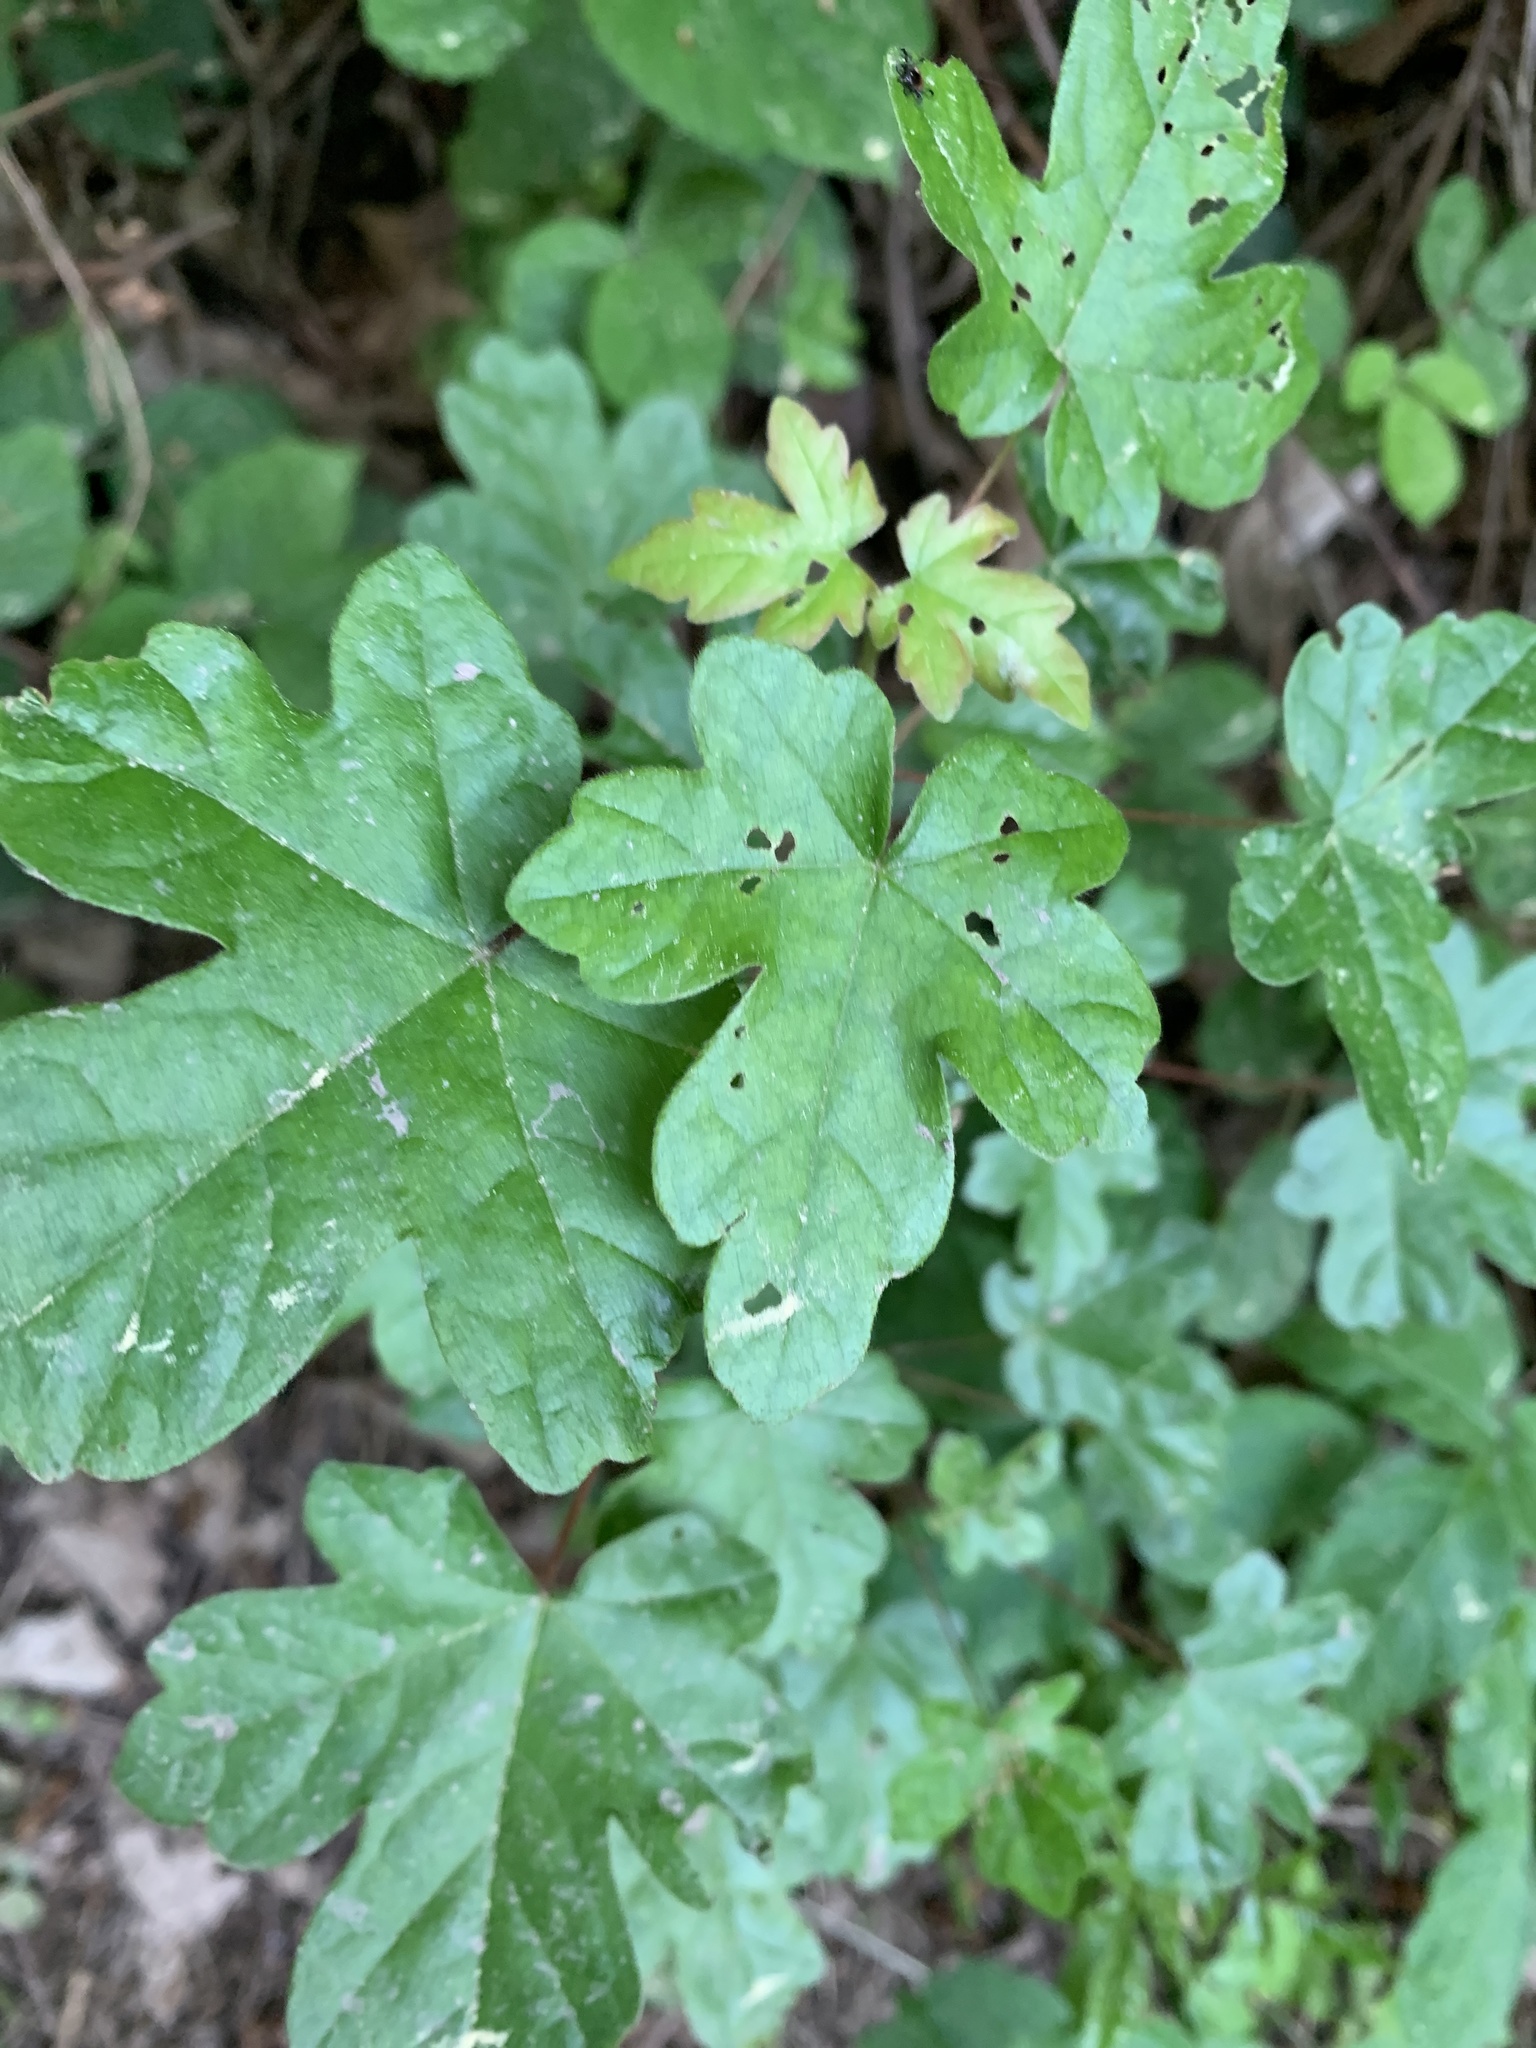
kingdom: Plantae
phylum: Tracheophyta
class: Magnoliopsida
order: Sapindales
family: Sapindaceae
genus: Acer
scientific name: Acer campestre
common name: Field maple
